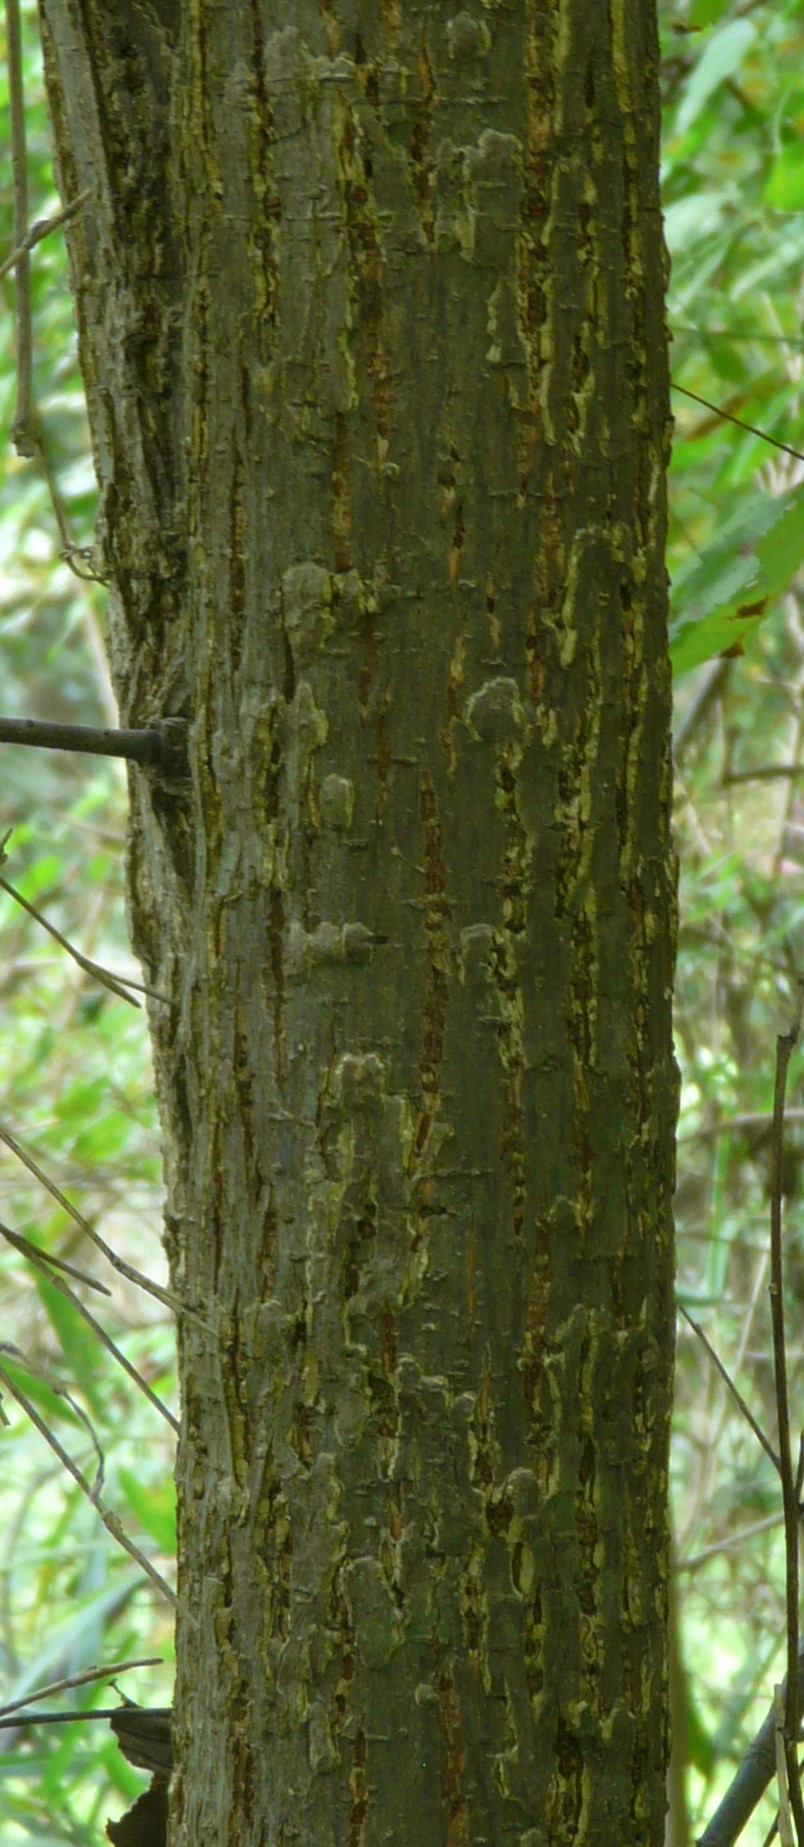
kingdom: Plantae
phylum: Tracheophyta
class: Magnoliopsida
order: Rosales
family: Ulmaceae
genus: Ulmus
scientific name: Ulmus americana
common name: American elm
